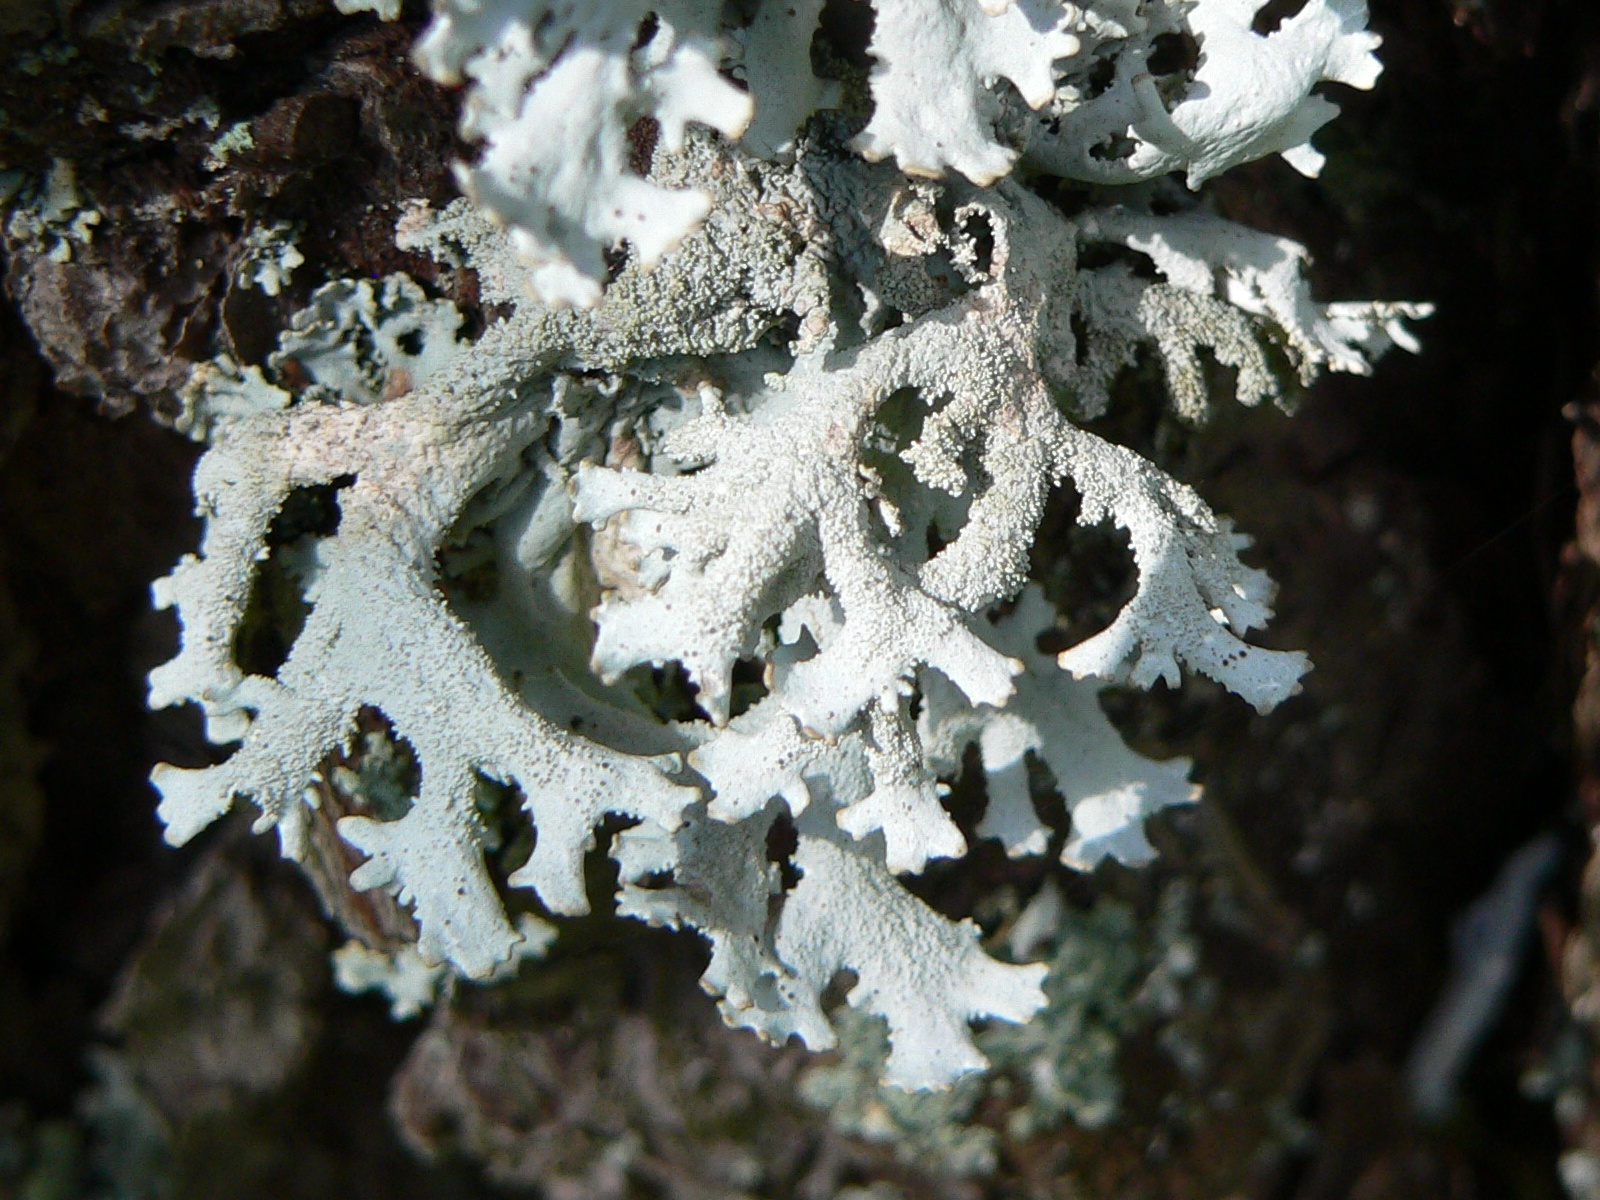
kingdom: Fungi
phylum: Ascomycota
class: Lecanoromycetes
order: Lecanorales
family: Parmeliaceae
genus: Pseudevernia
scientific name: Pseudevernia furfuracea
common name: Tree moss
